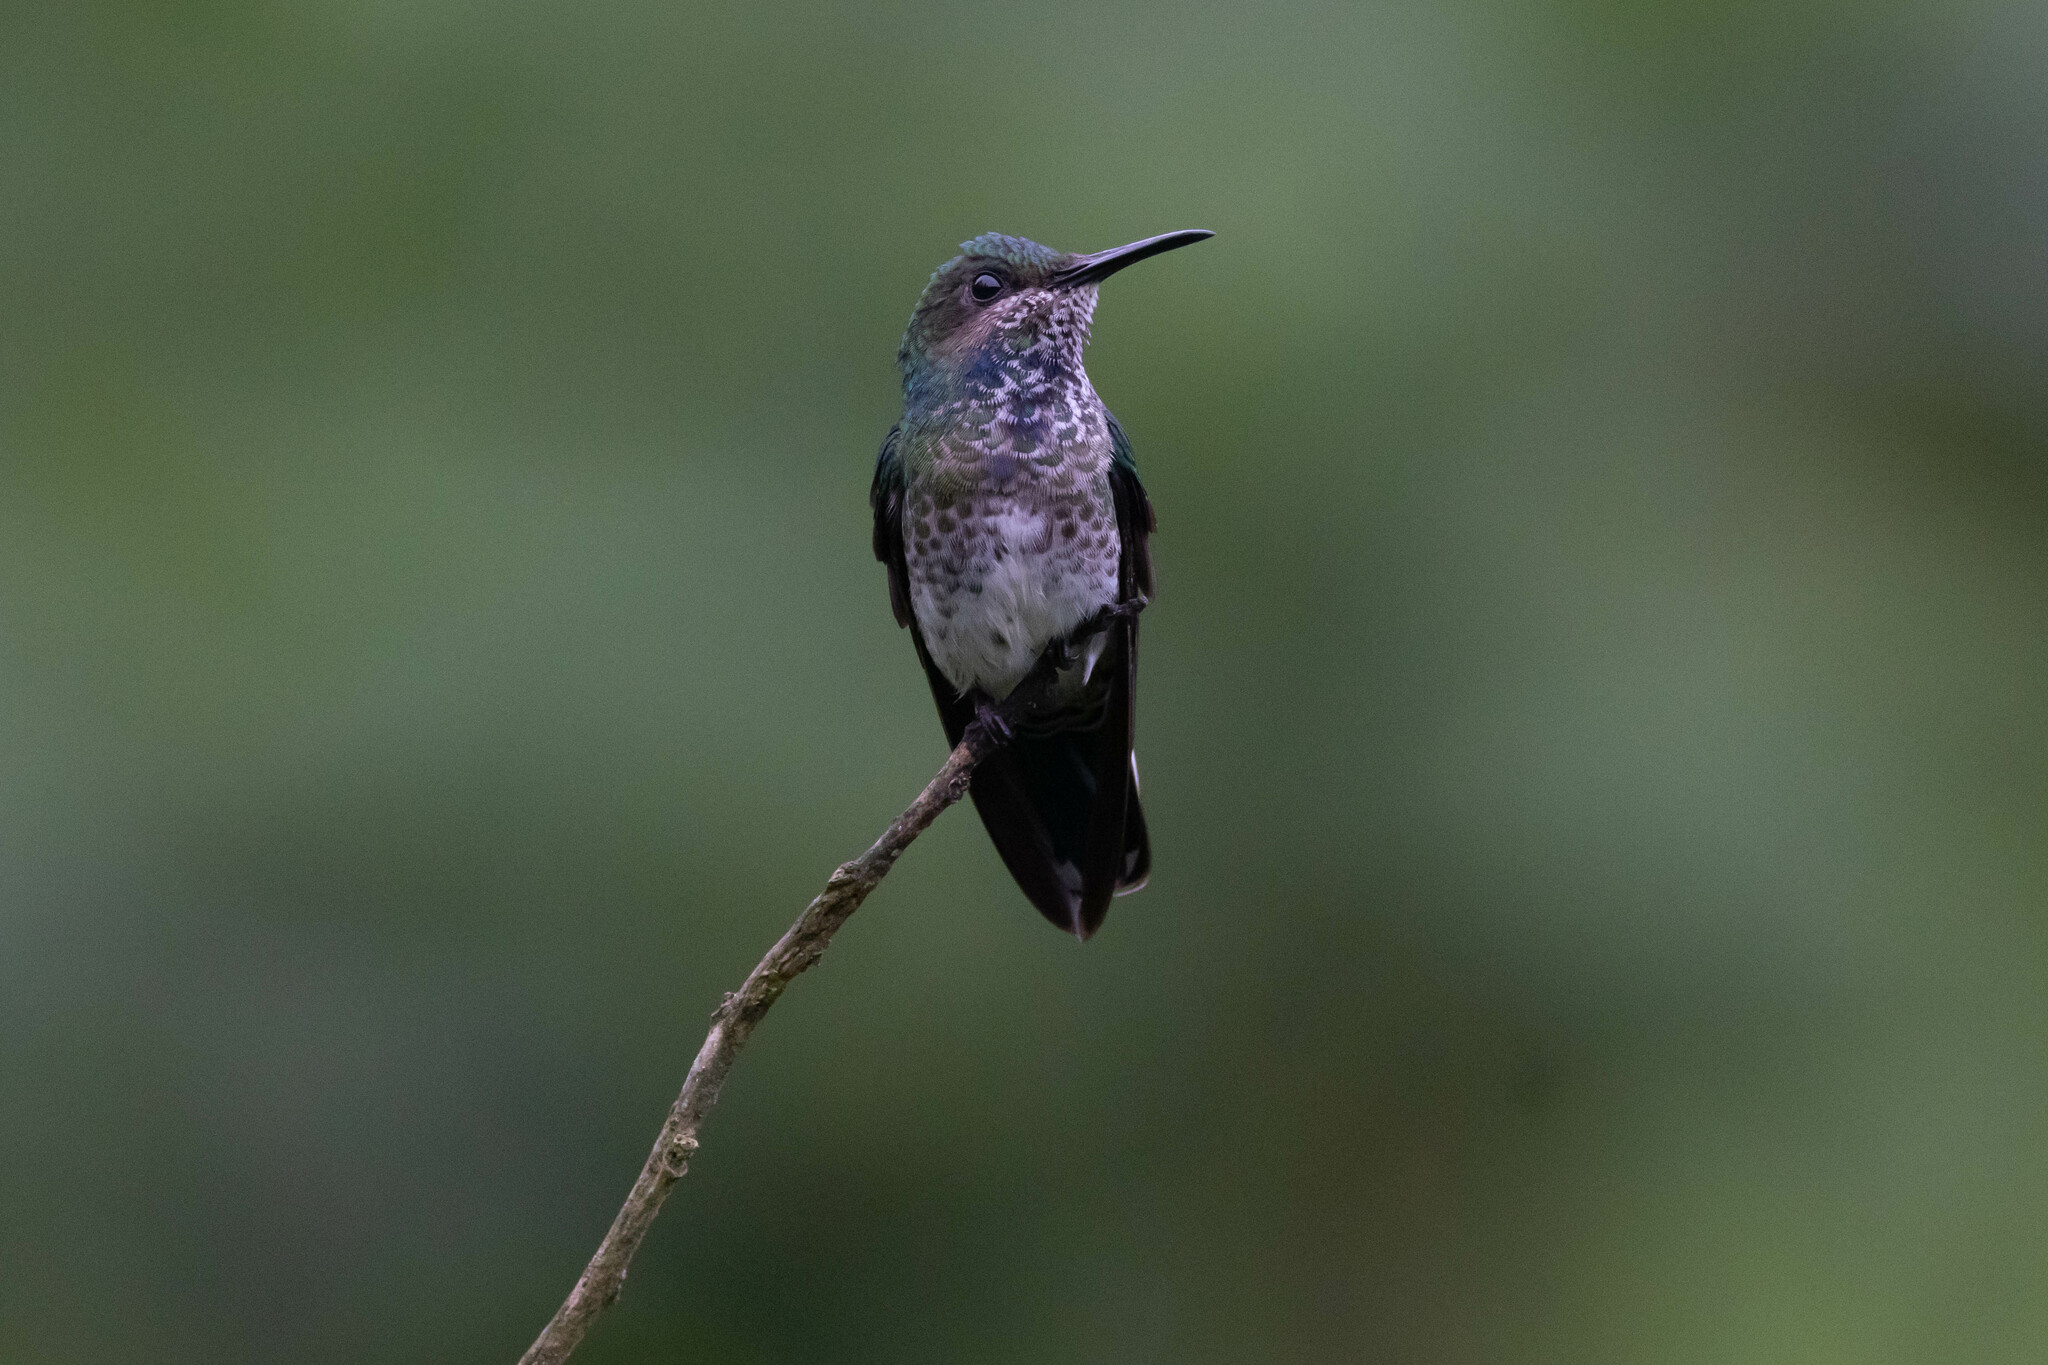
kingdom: Animalia
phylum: Chordata
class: Aves
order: Apodiformes
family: Trochilidae
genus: Florisuga
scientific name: Florisuga mellivora
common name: White-necked jacobin
